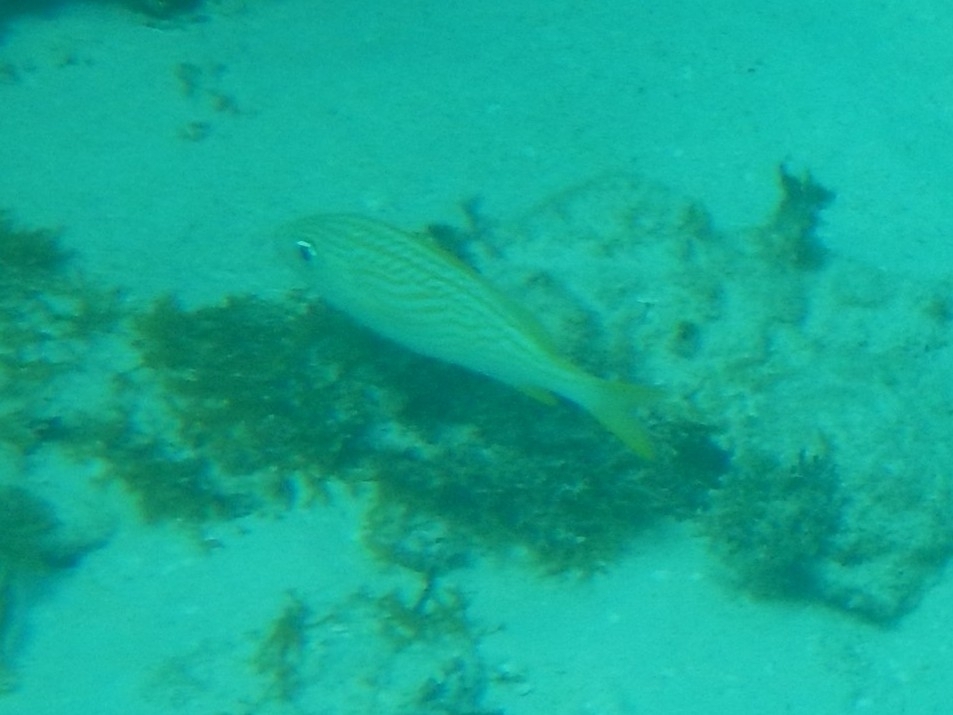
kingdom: Animalia
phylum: Chordata
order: Perciformes
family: Haemulidae
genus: Haemulon
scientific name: Haemulon flavolineatum
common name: French grunt
